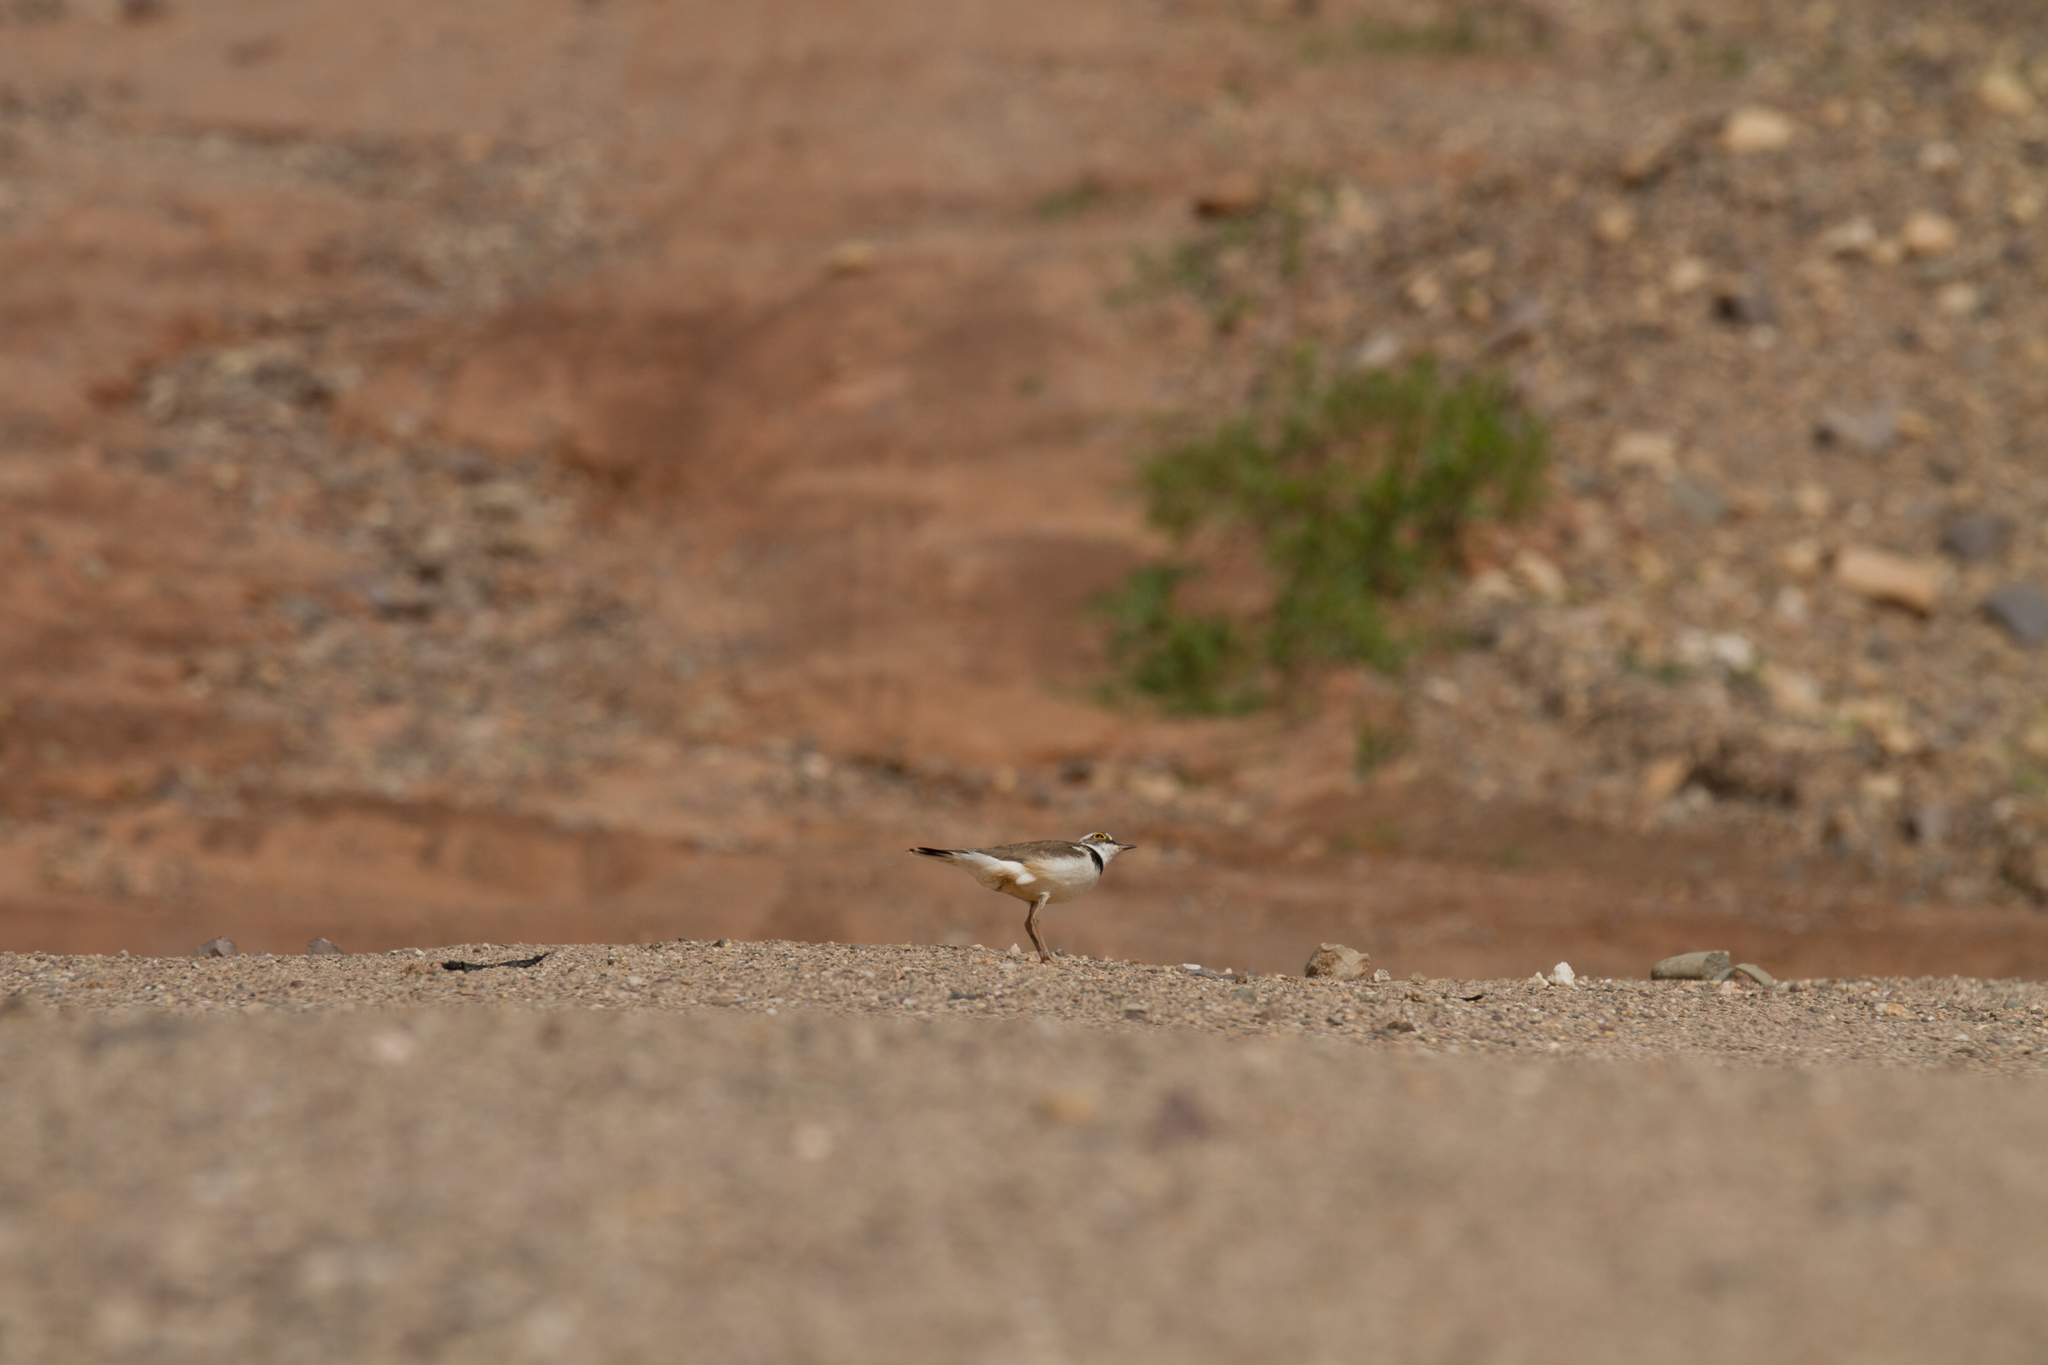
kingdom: Animalia
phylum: Chordata
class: Aves
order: Charadriiformes
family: Charadriidae
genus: Charadrius
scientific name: Charadrius dubius
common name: Little ringed plover
